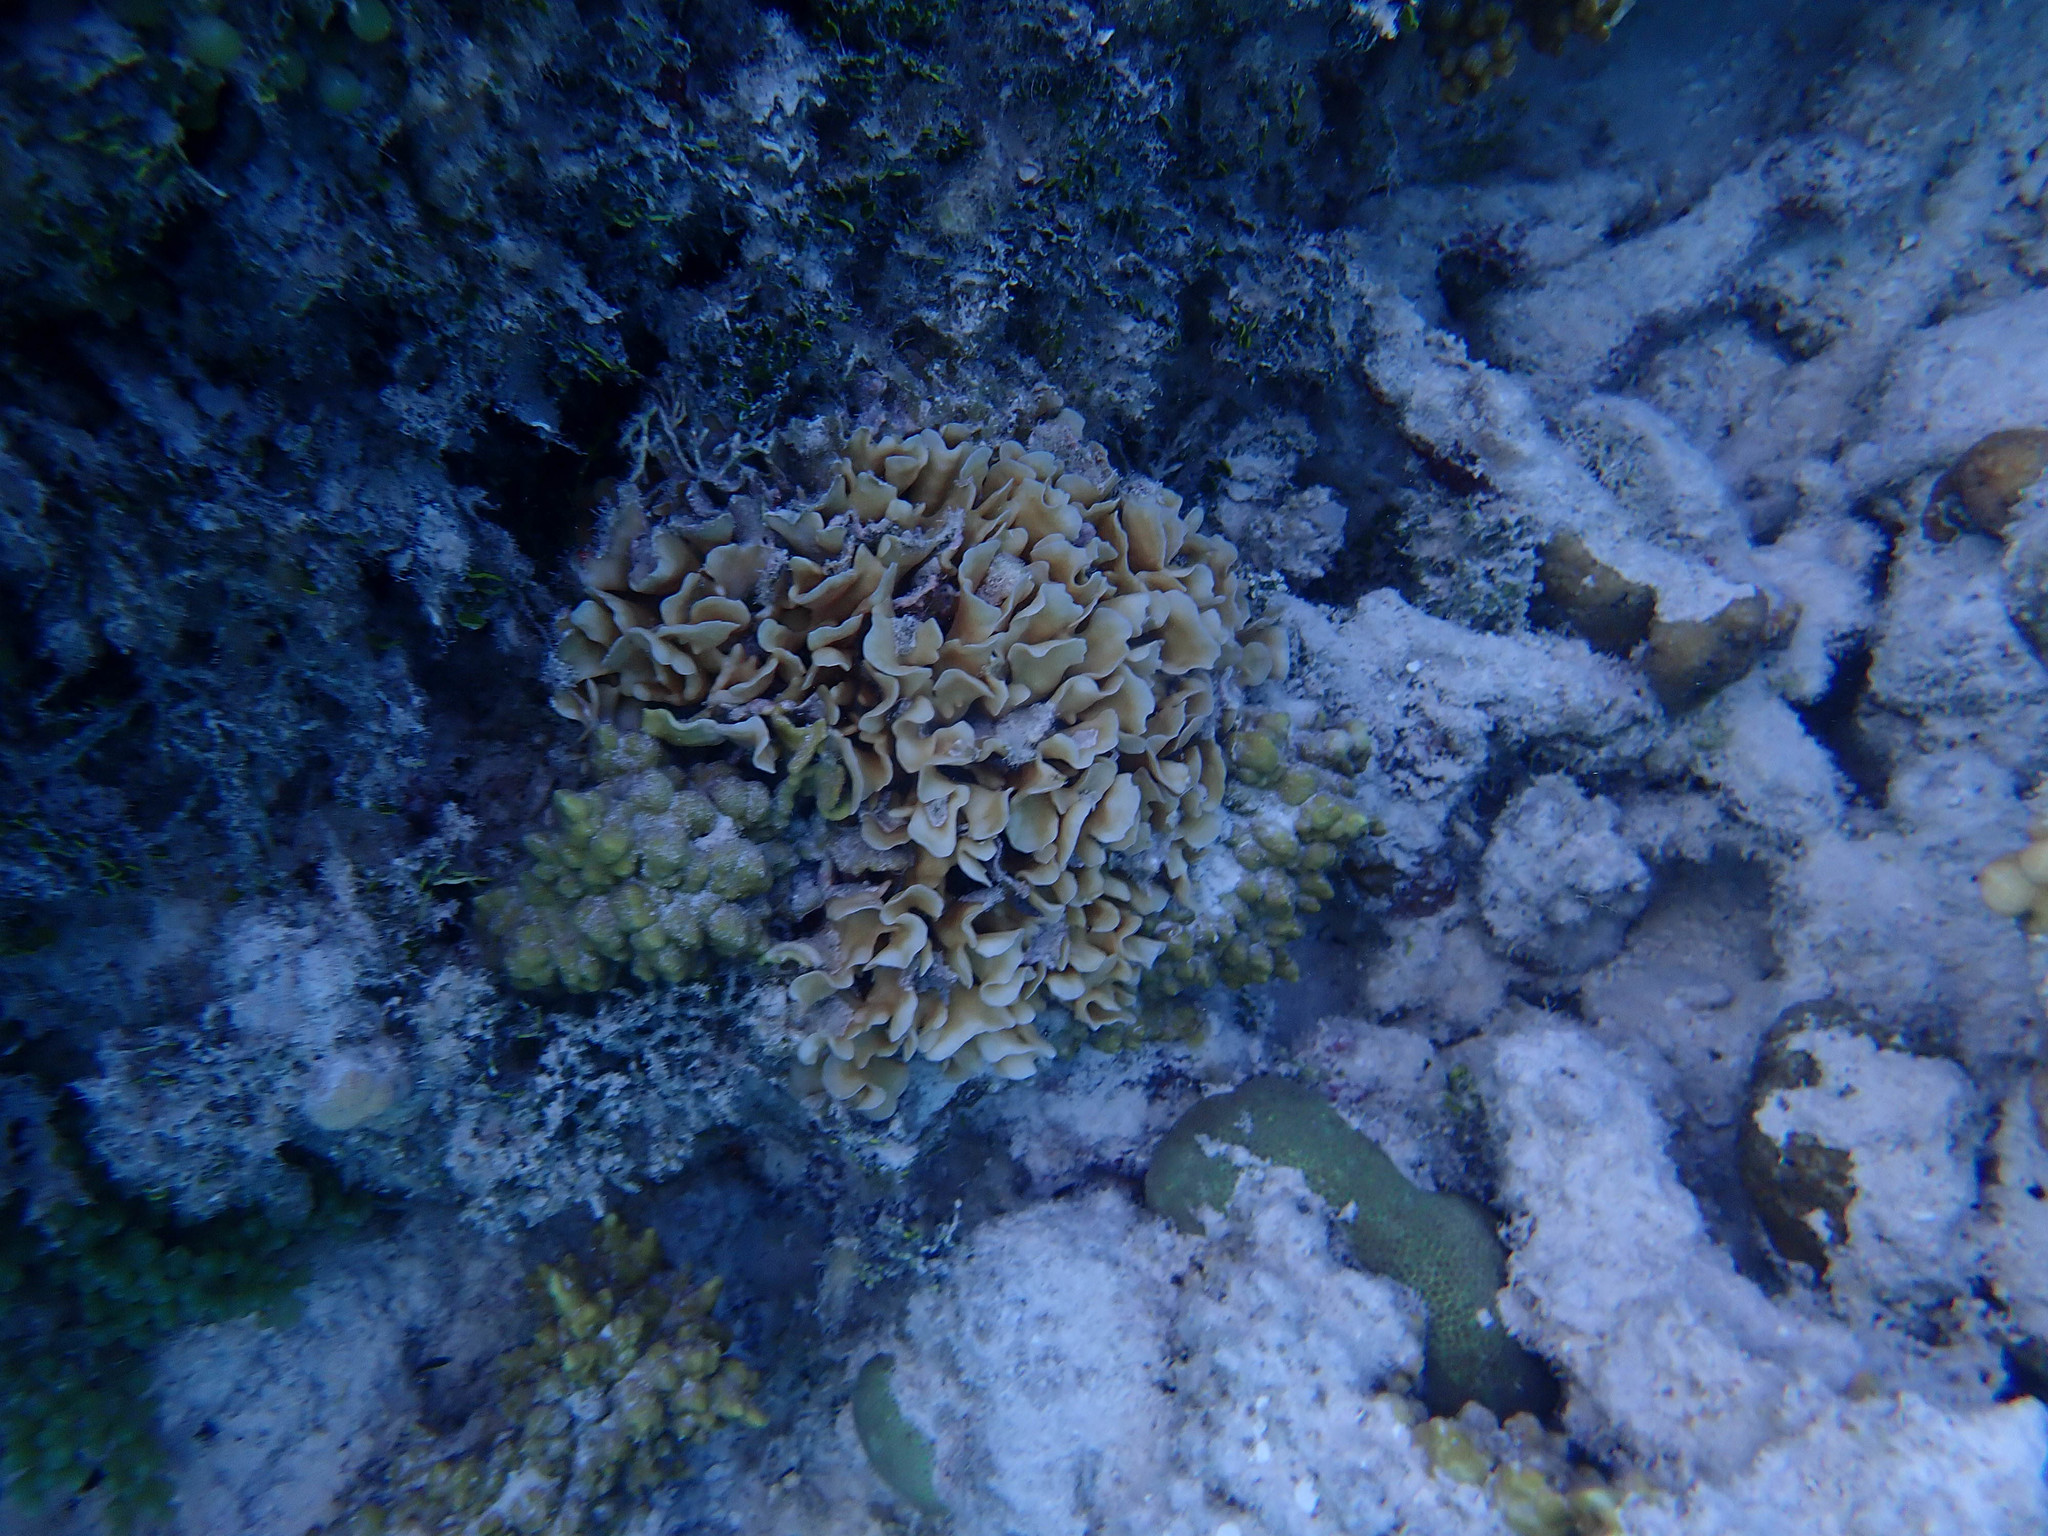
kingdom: Animalia
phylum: Cnidaria
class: Anthozoa
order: Scleractinia
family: Agariciidae
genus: Pavona
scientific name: Pavona cactus
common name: Leaf coral
